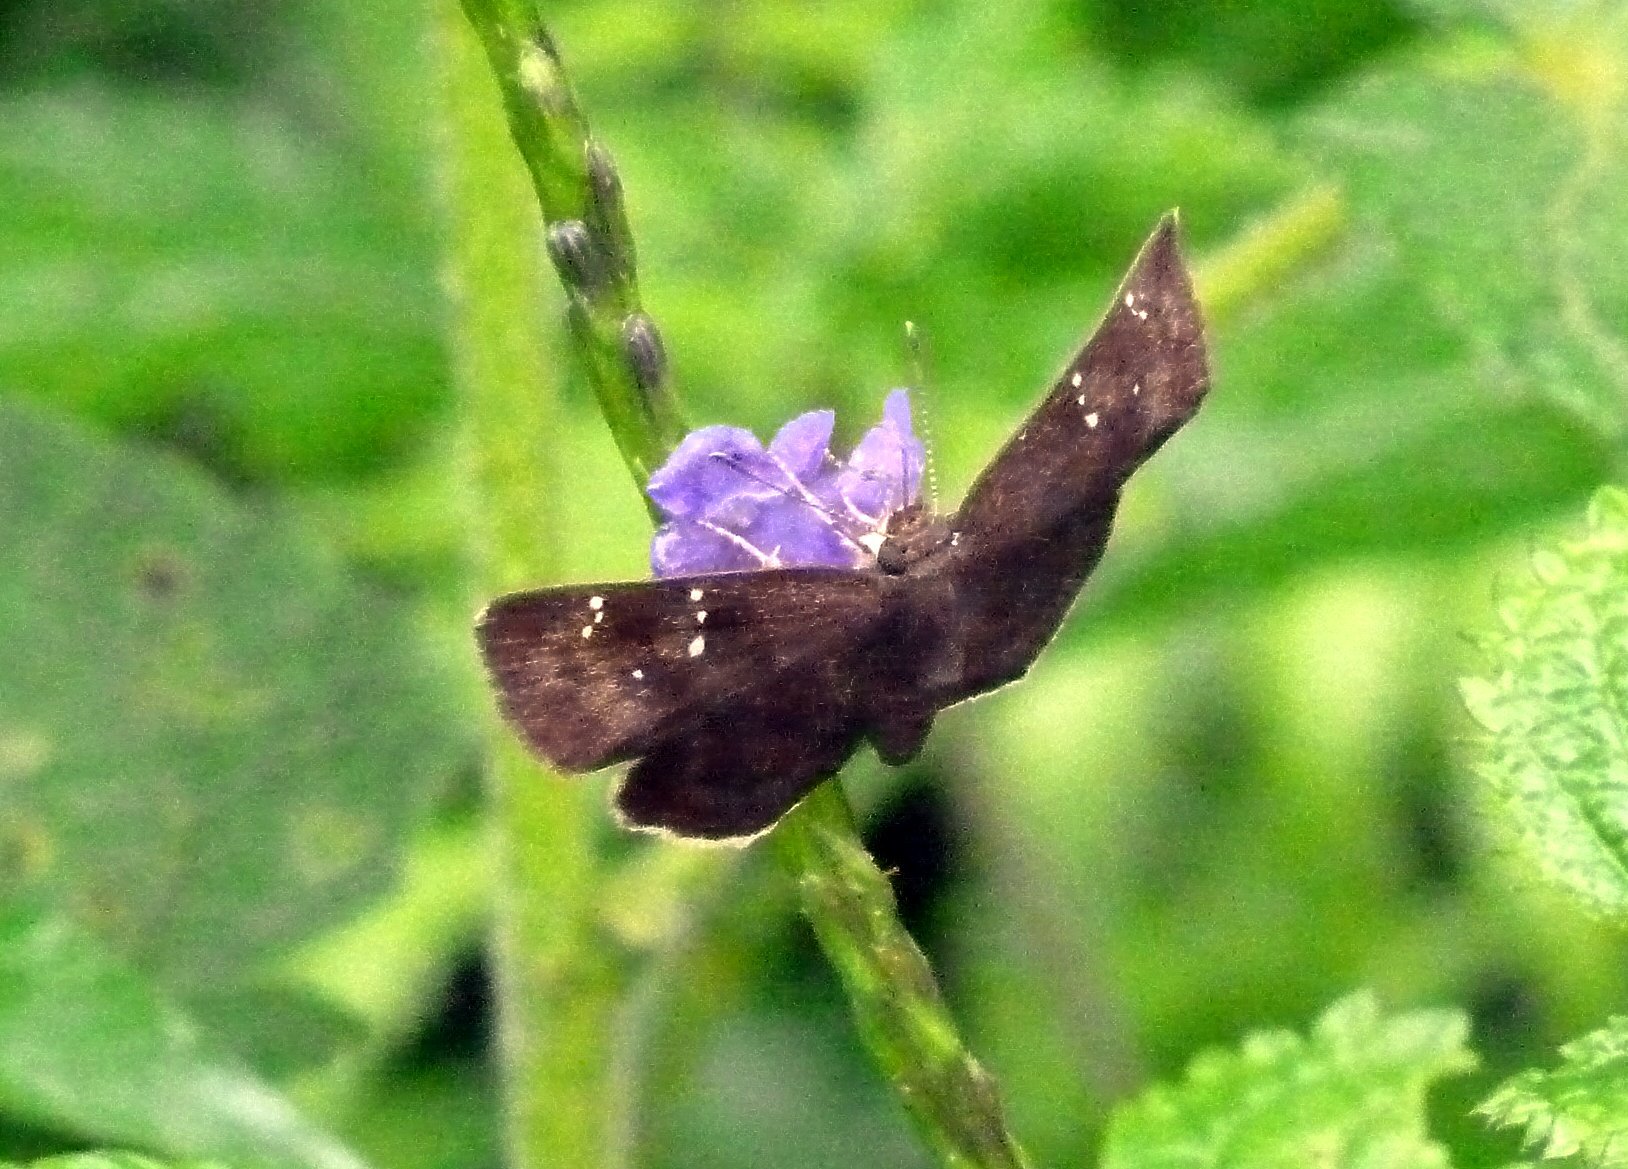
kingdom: Animalia
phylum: Arthropoda
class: Insecta
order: Lepidoptera
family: Hesperiidae
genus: Sarangesa
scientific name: Sarangesa dasahara
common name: Common small flat
